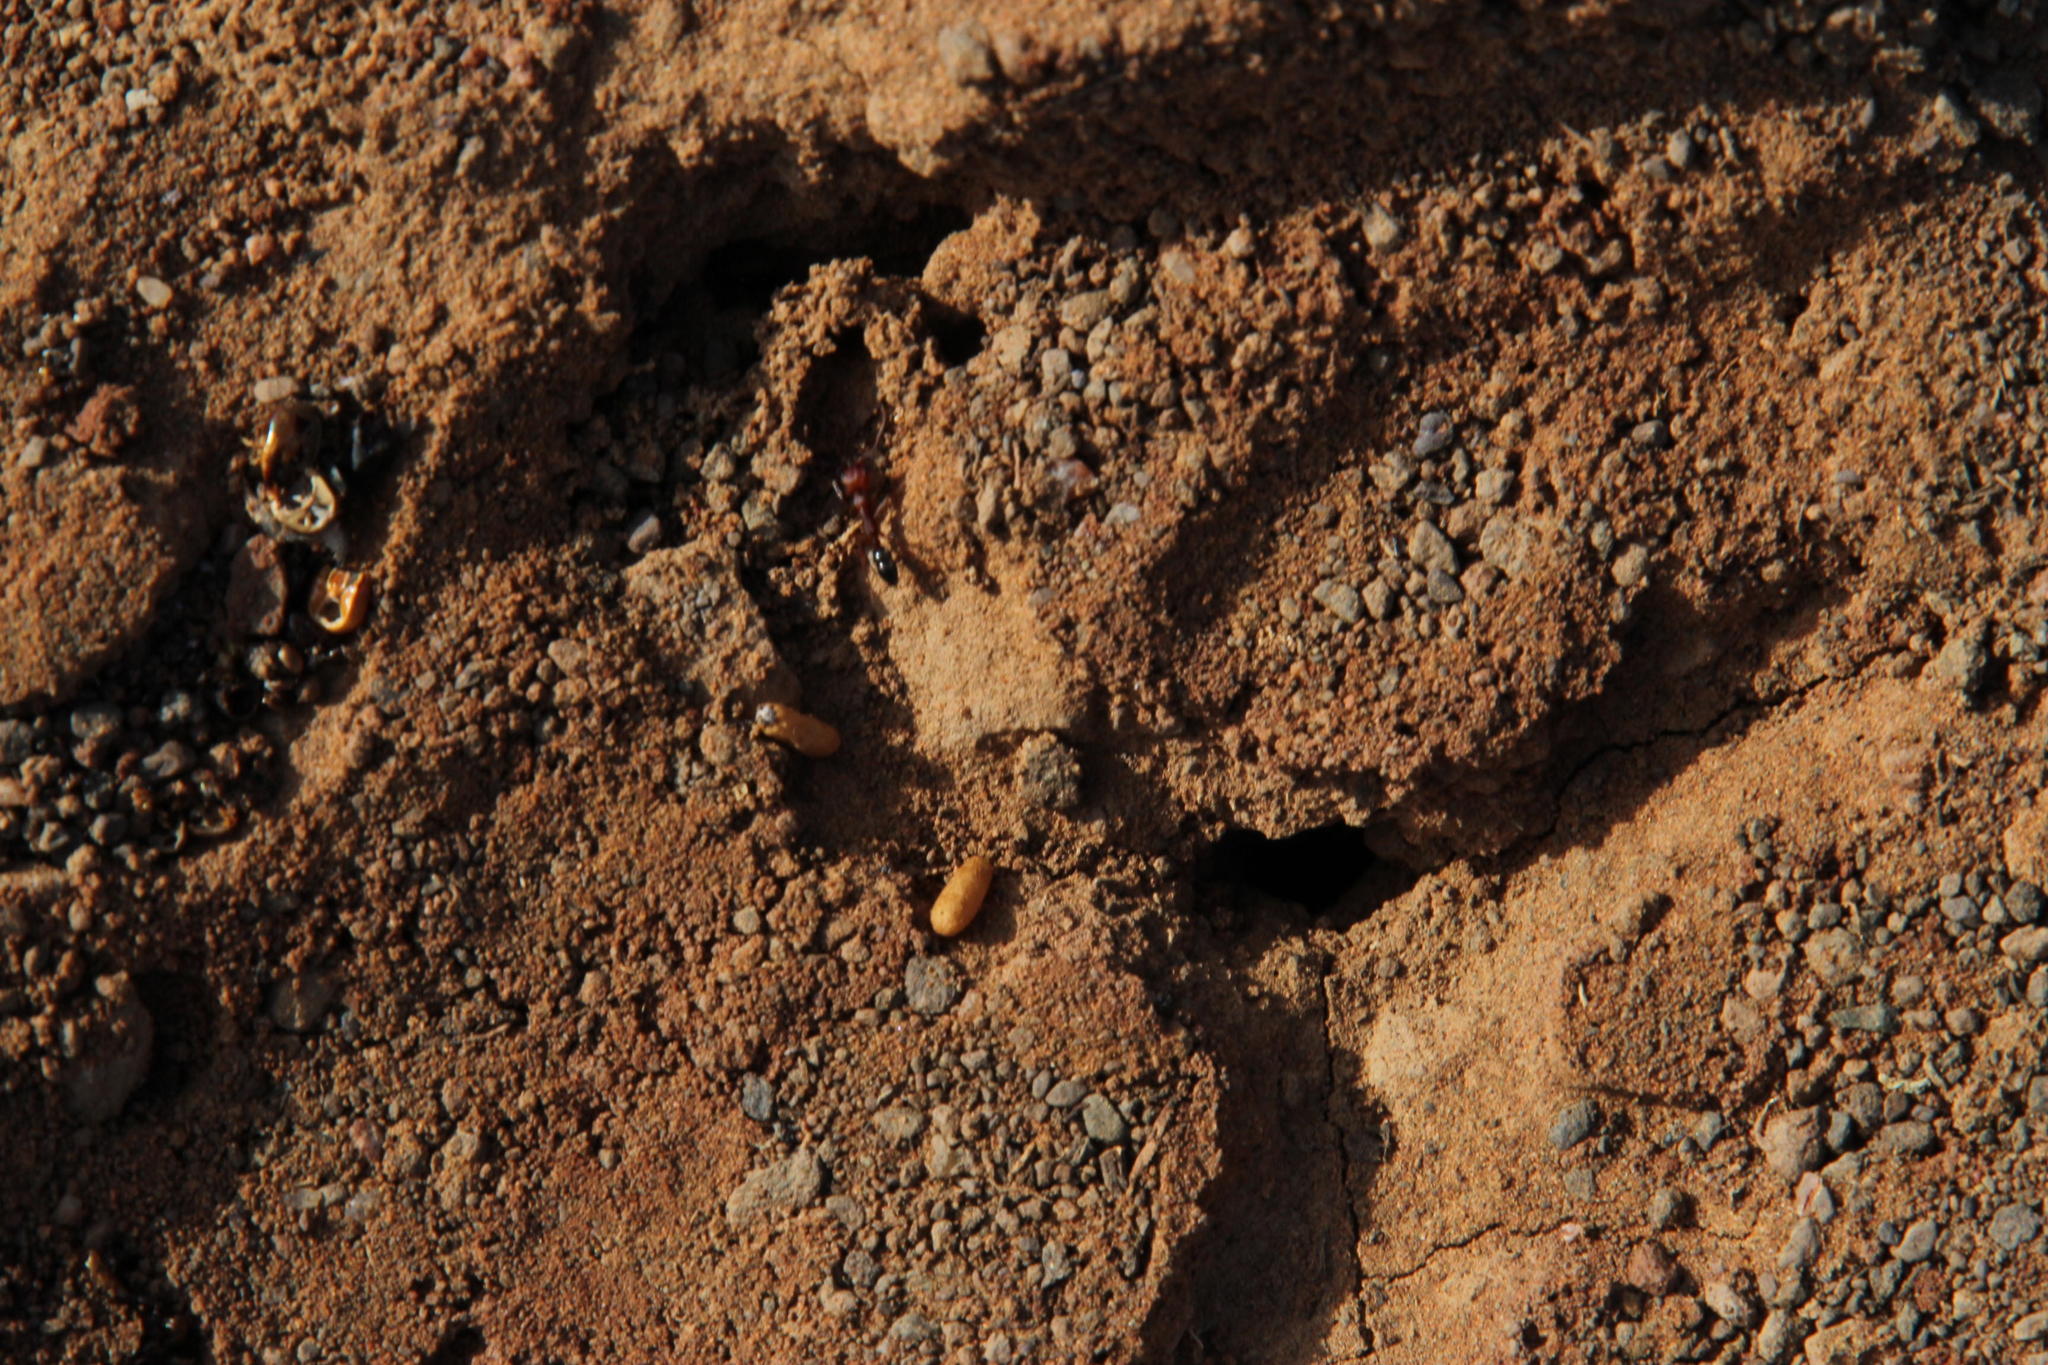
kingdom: Animalia
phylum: Arthropoda
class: Insecta
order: Hymenoptera
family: Formicidae
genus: Anochetus
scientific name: Anochetus levaillanti
